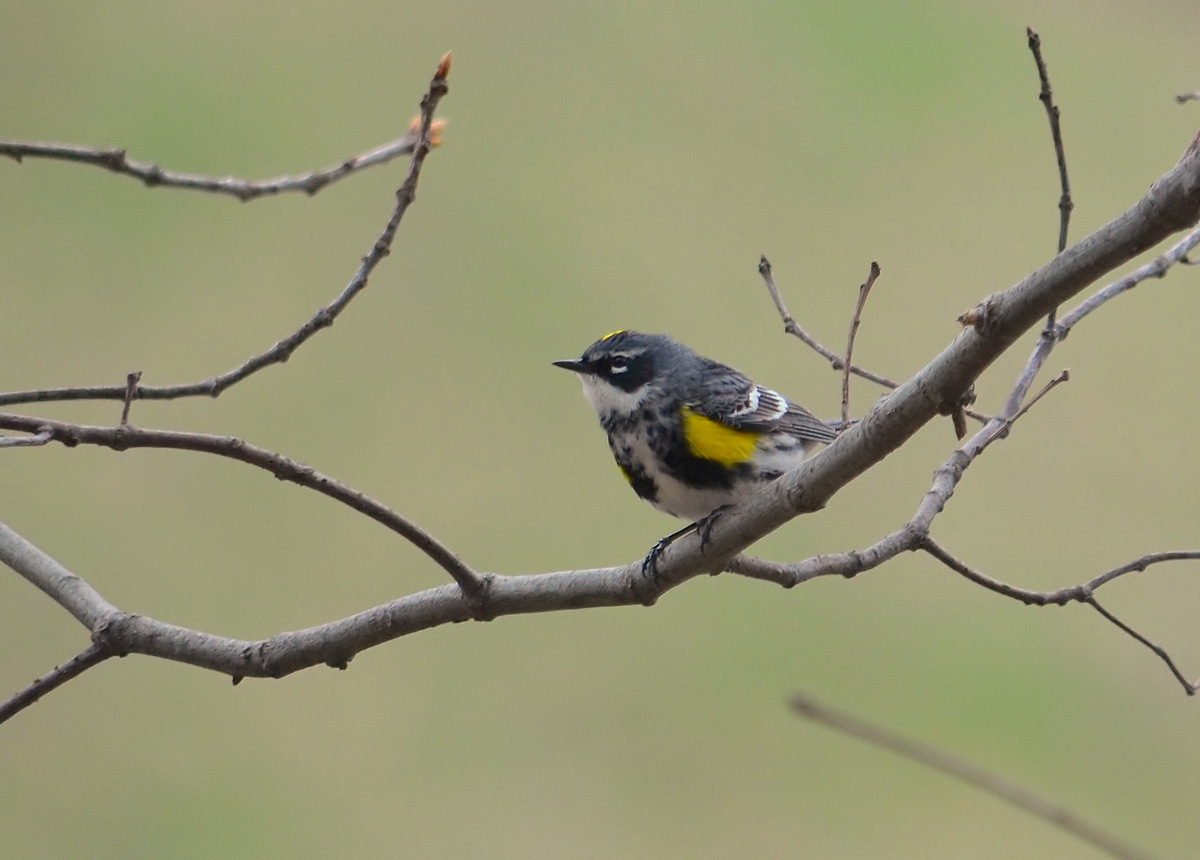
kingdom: Animalia
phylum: Chordata
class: Aves
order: Passeriformes
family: Parulidae
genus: Setophaga
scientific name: Setophaga coronata
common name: Myrtle warbler
